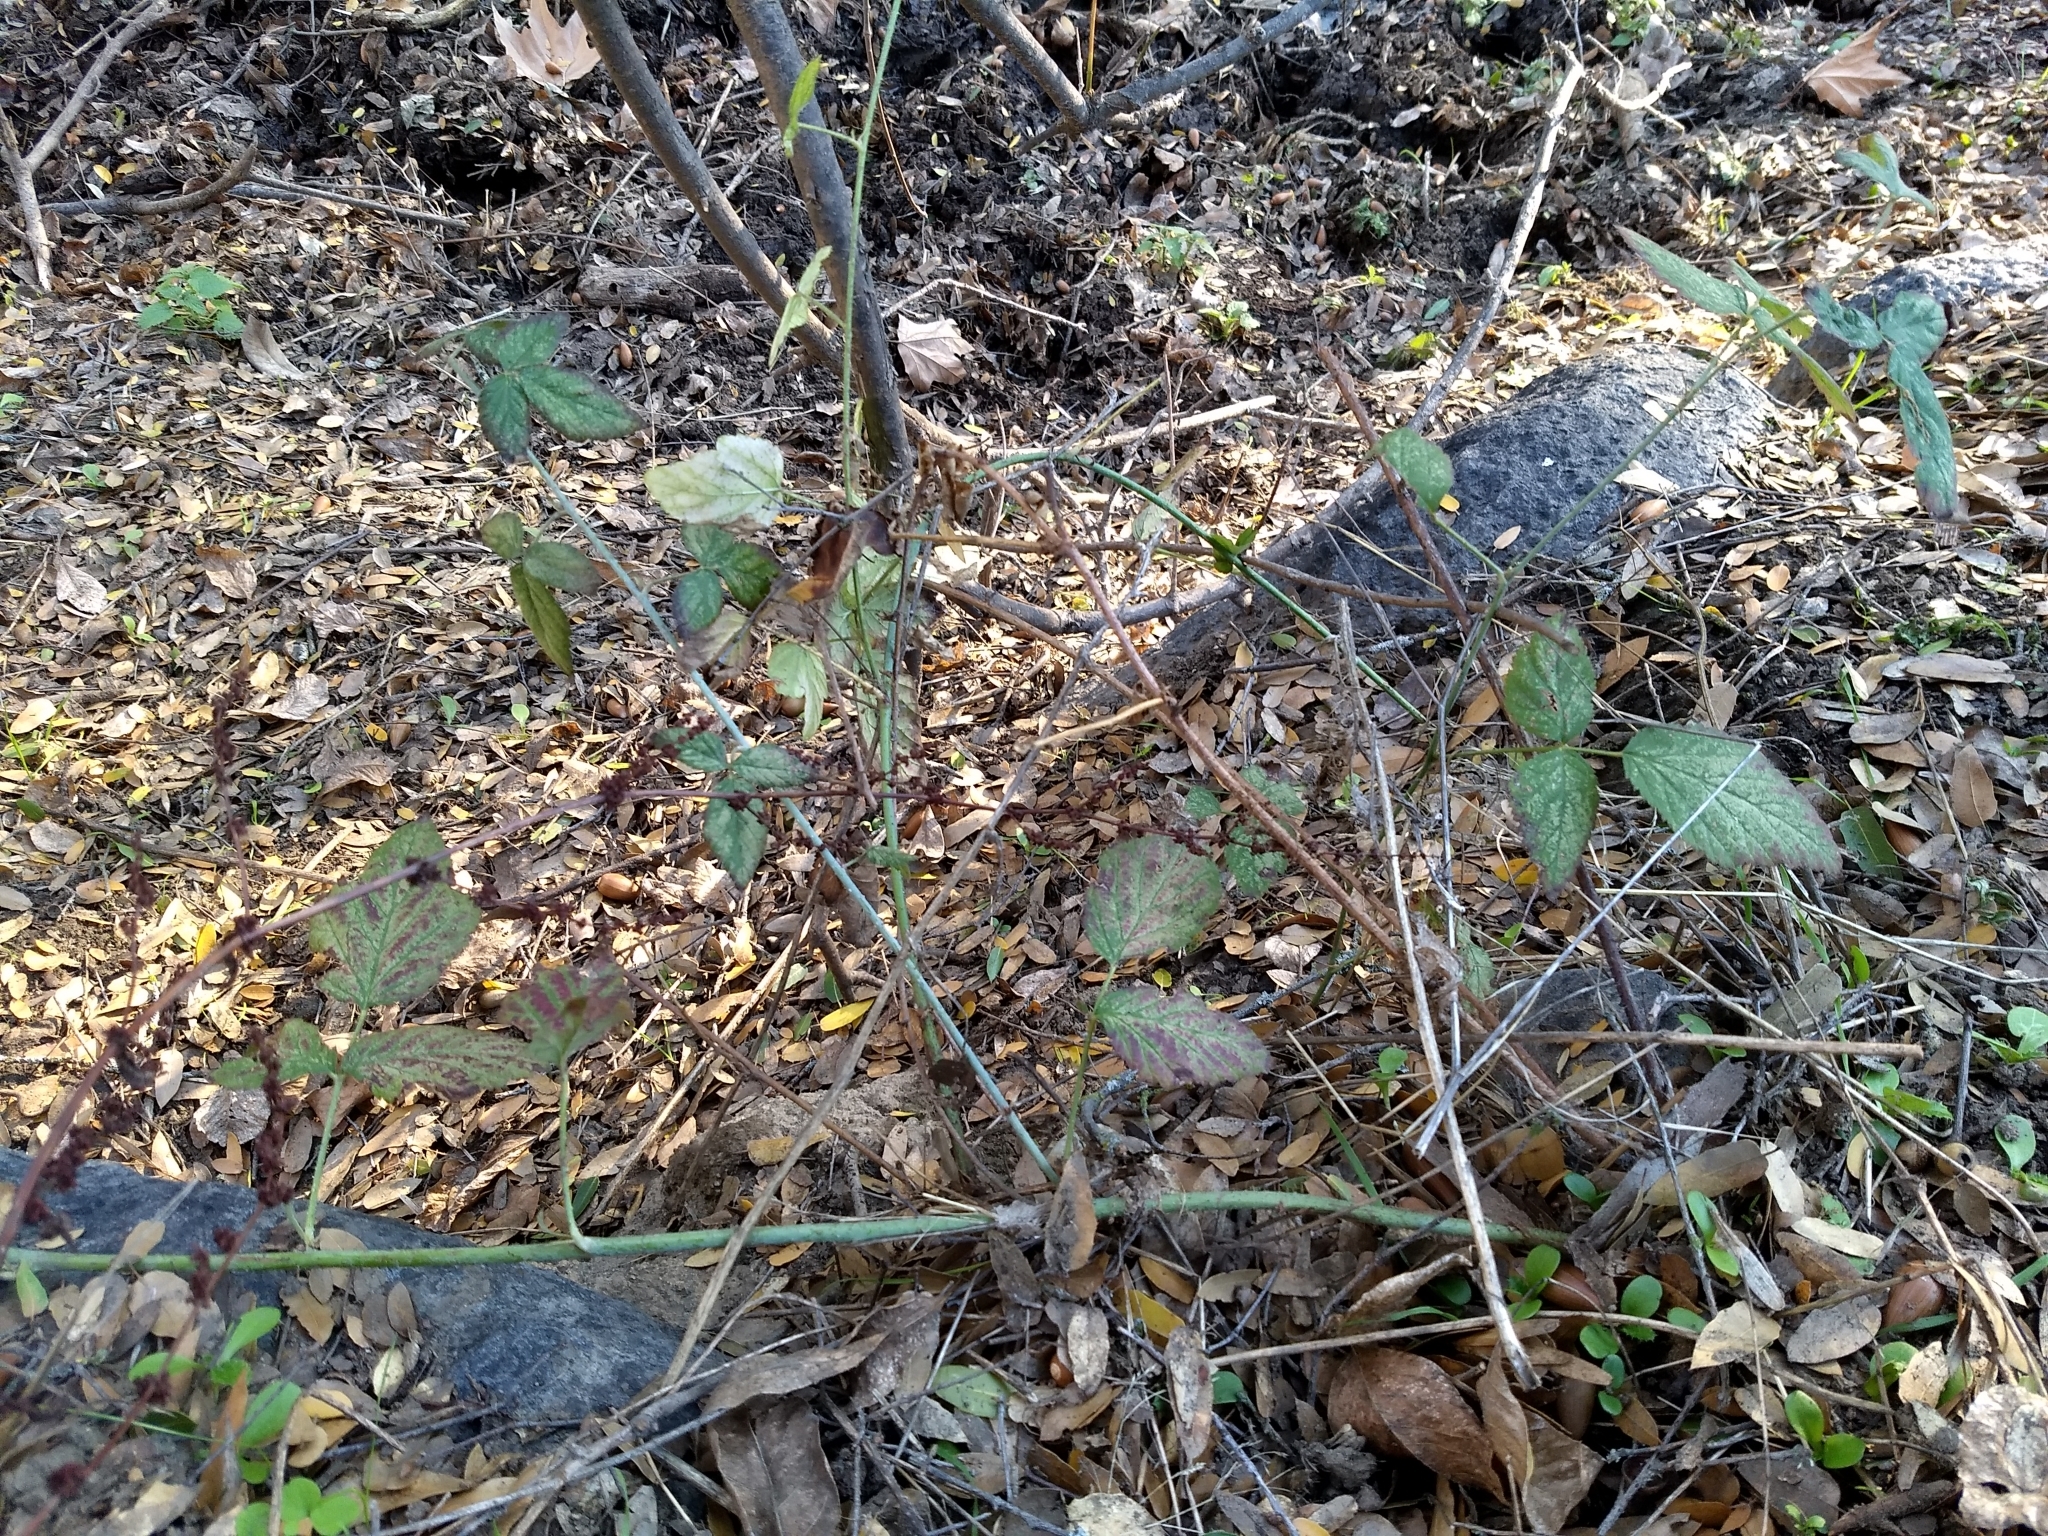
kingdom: Plantae
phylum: Tracheophyta
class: Magnoliopsida
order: Rosales
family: Rosaceae
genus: Rubus
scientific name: Rubus ursinus
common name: Pacific blackberry
